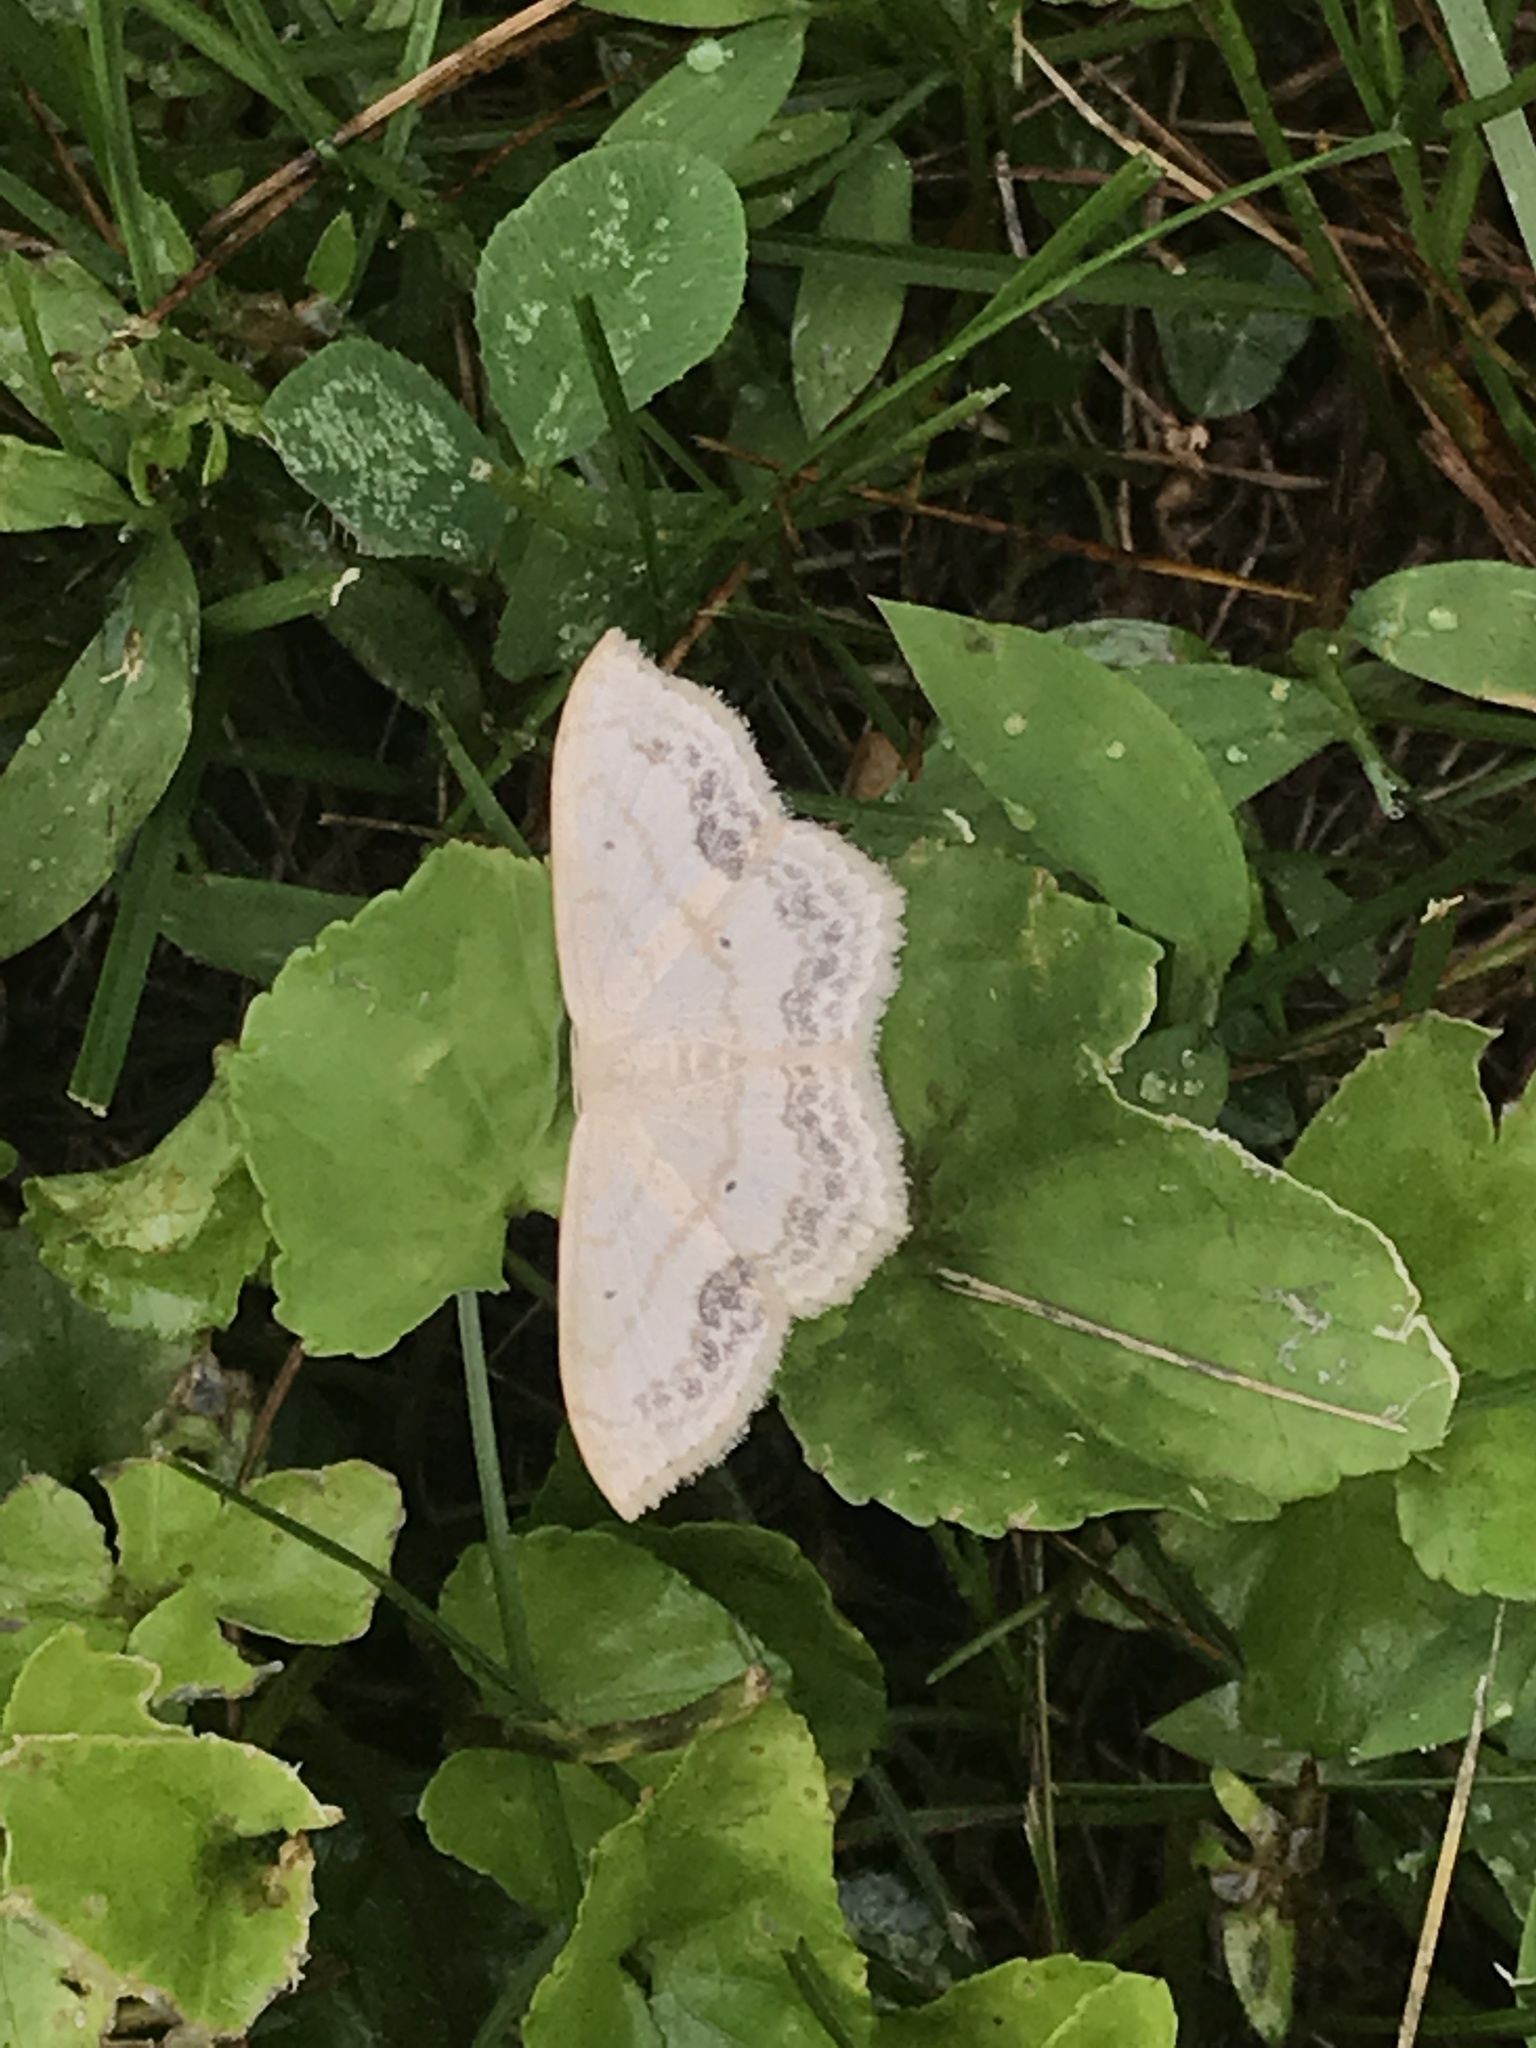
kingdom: Animalia
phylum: Arthropoda
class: Insecta
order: Lepidoptera
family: Geometridae
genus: Scopula
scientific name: Scopula limboundata
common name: Large lace border
